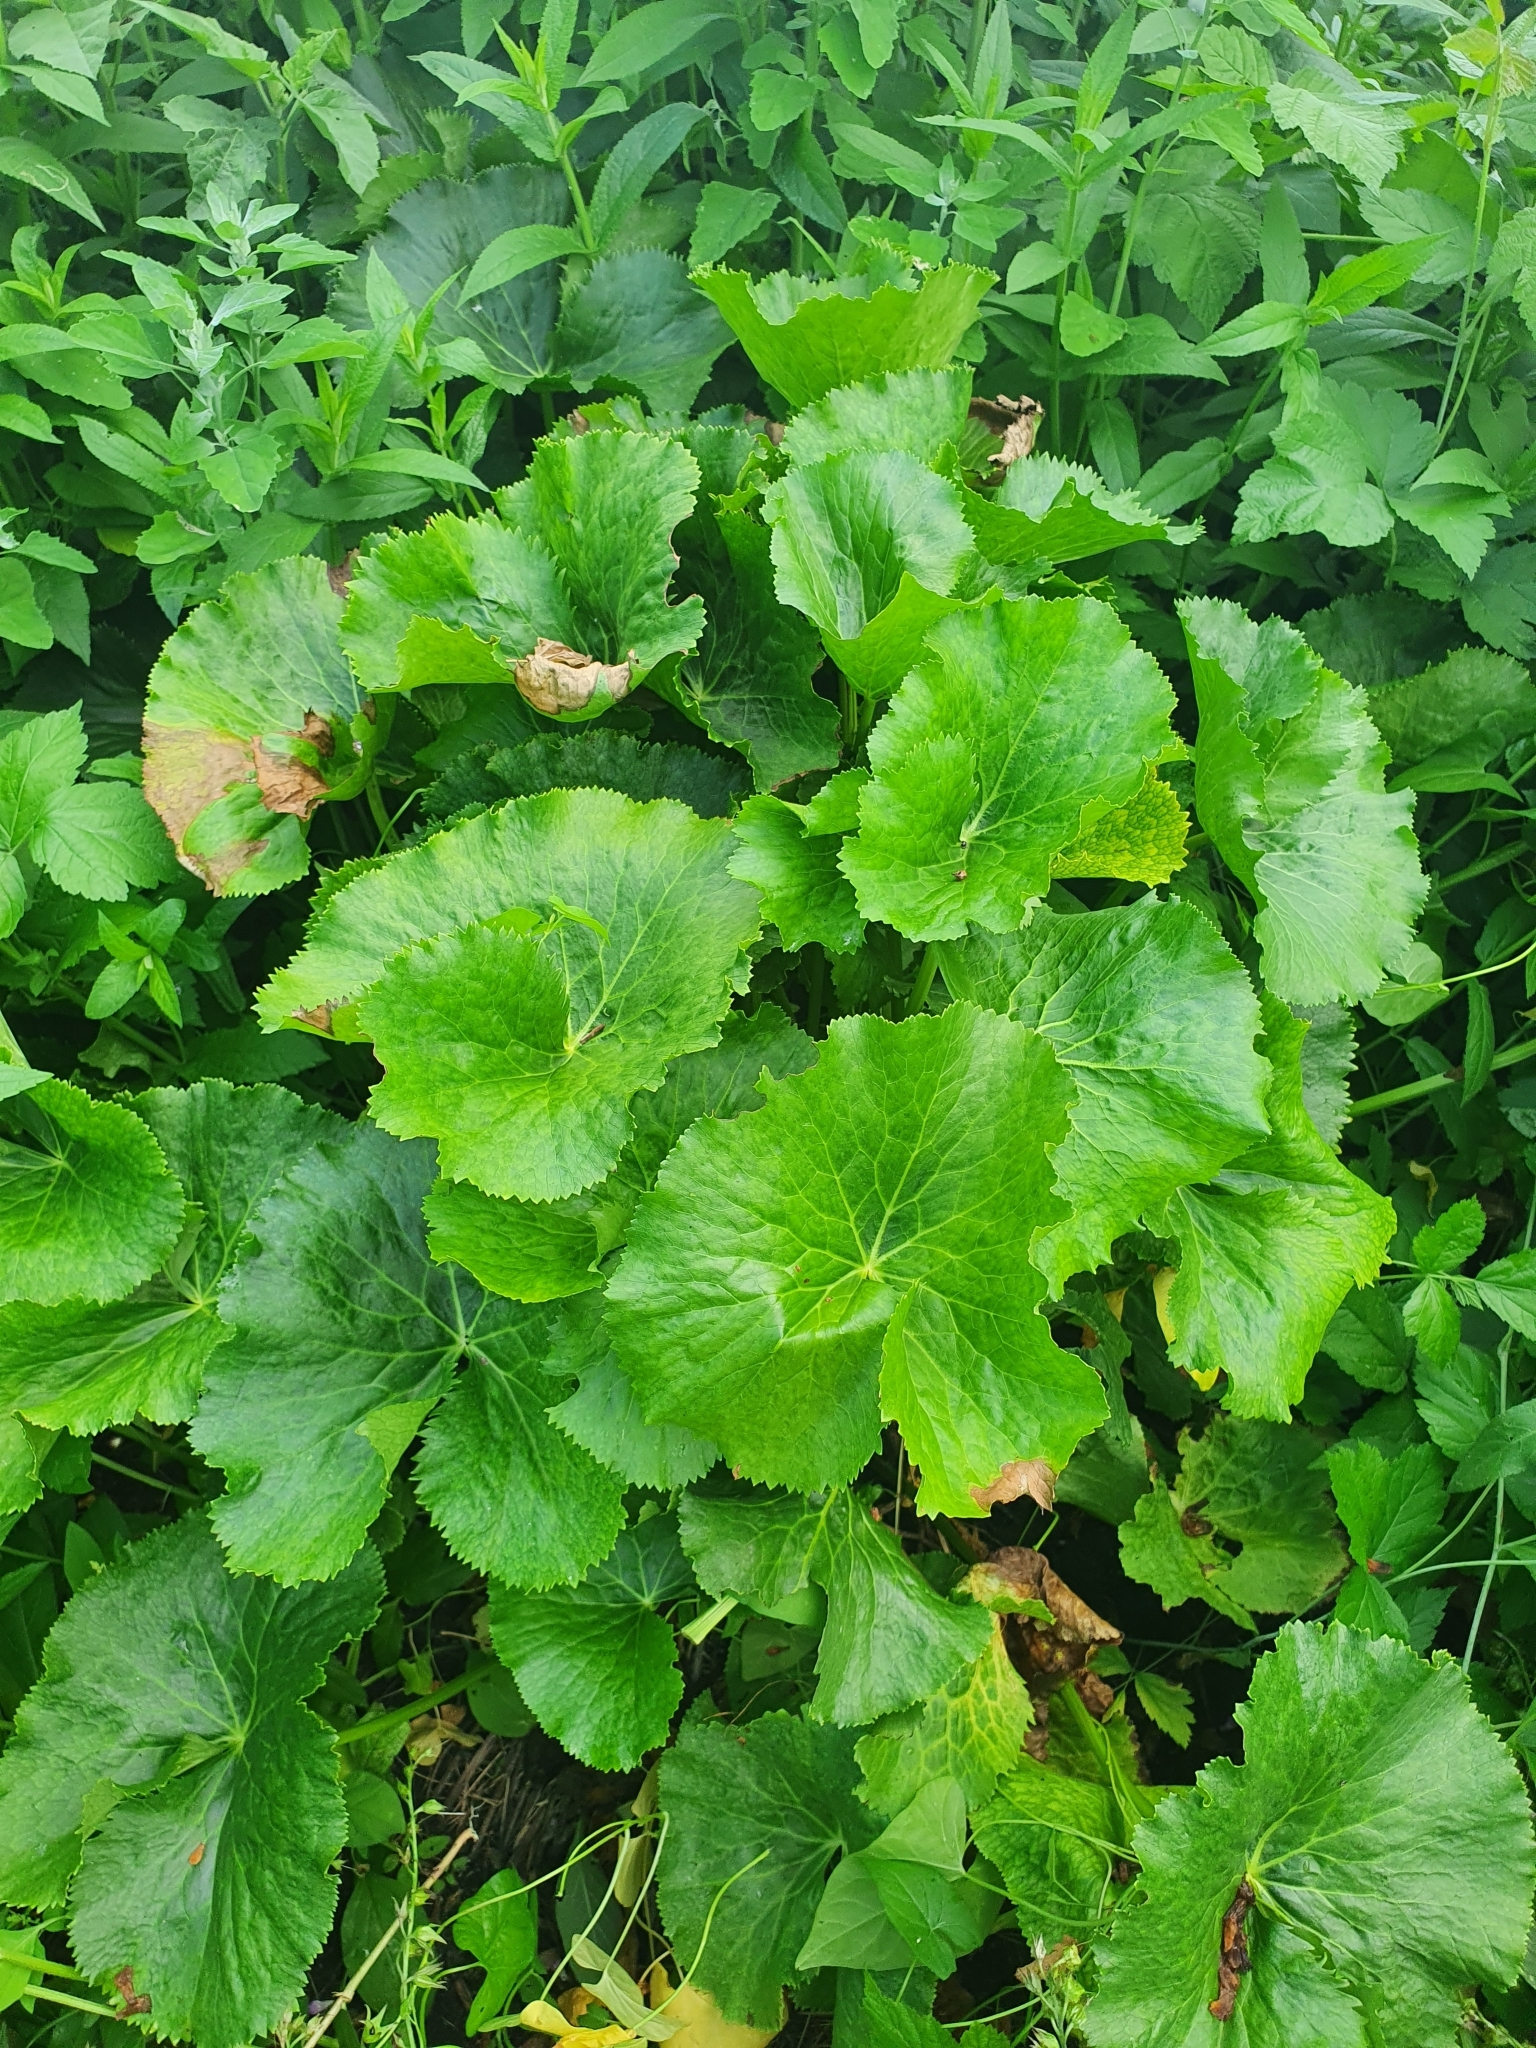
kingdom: Plantae
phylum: Tracheophyta
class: Magnoliopsida
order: Ranunculales
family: Ranunculaceae
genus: Caltha
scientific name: Caltha palustris
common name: Marsh marigold
